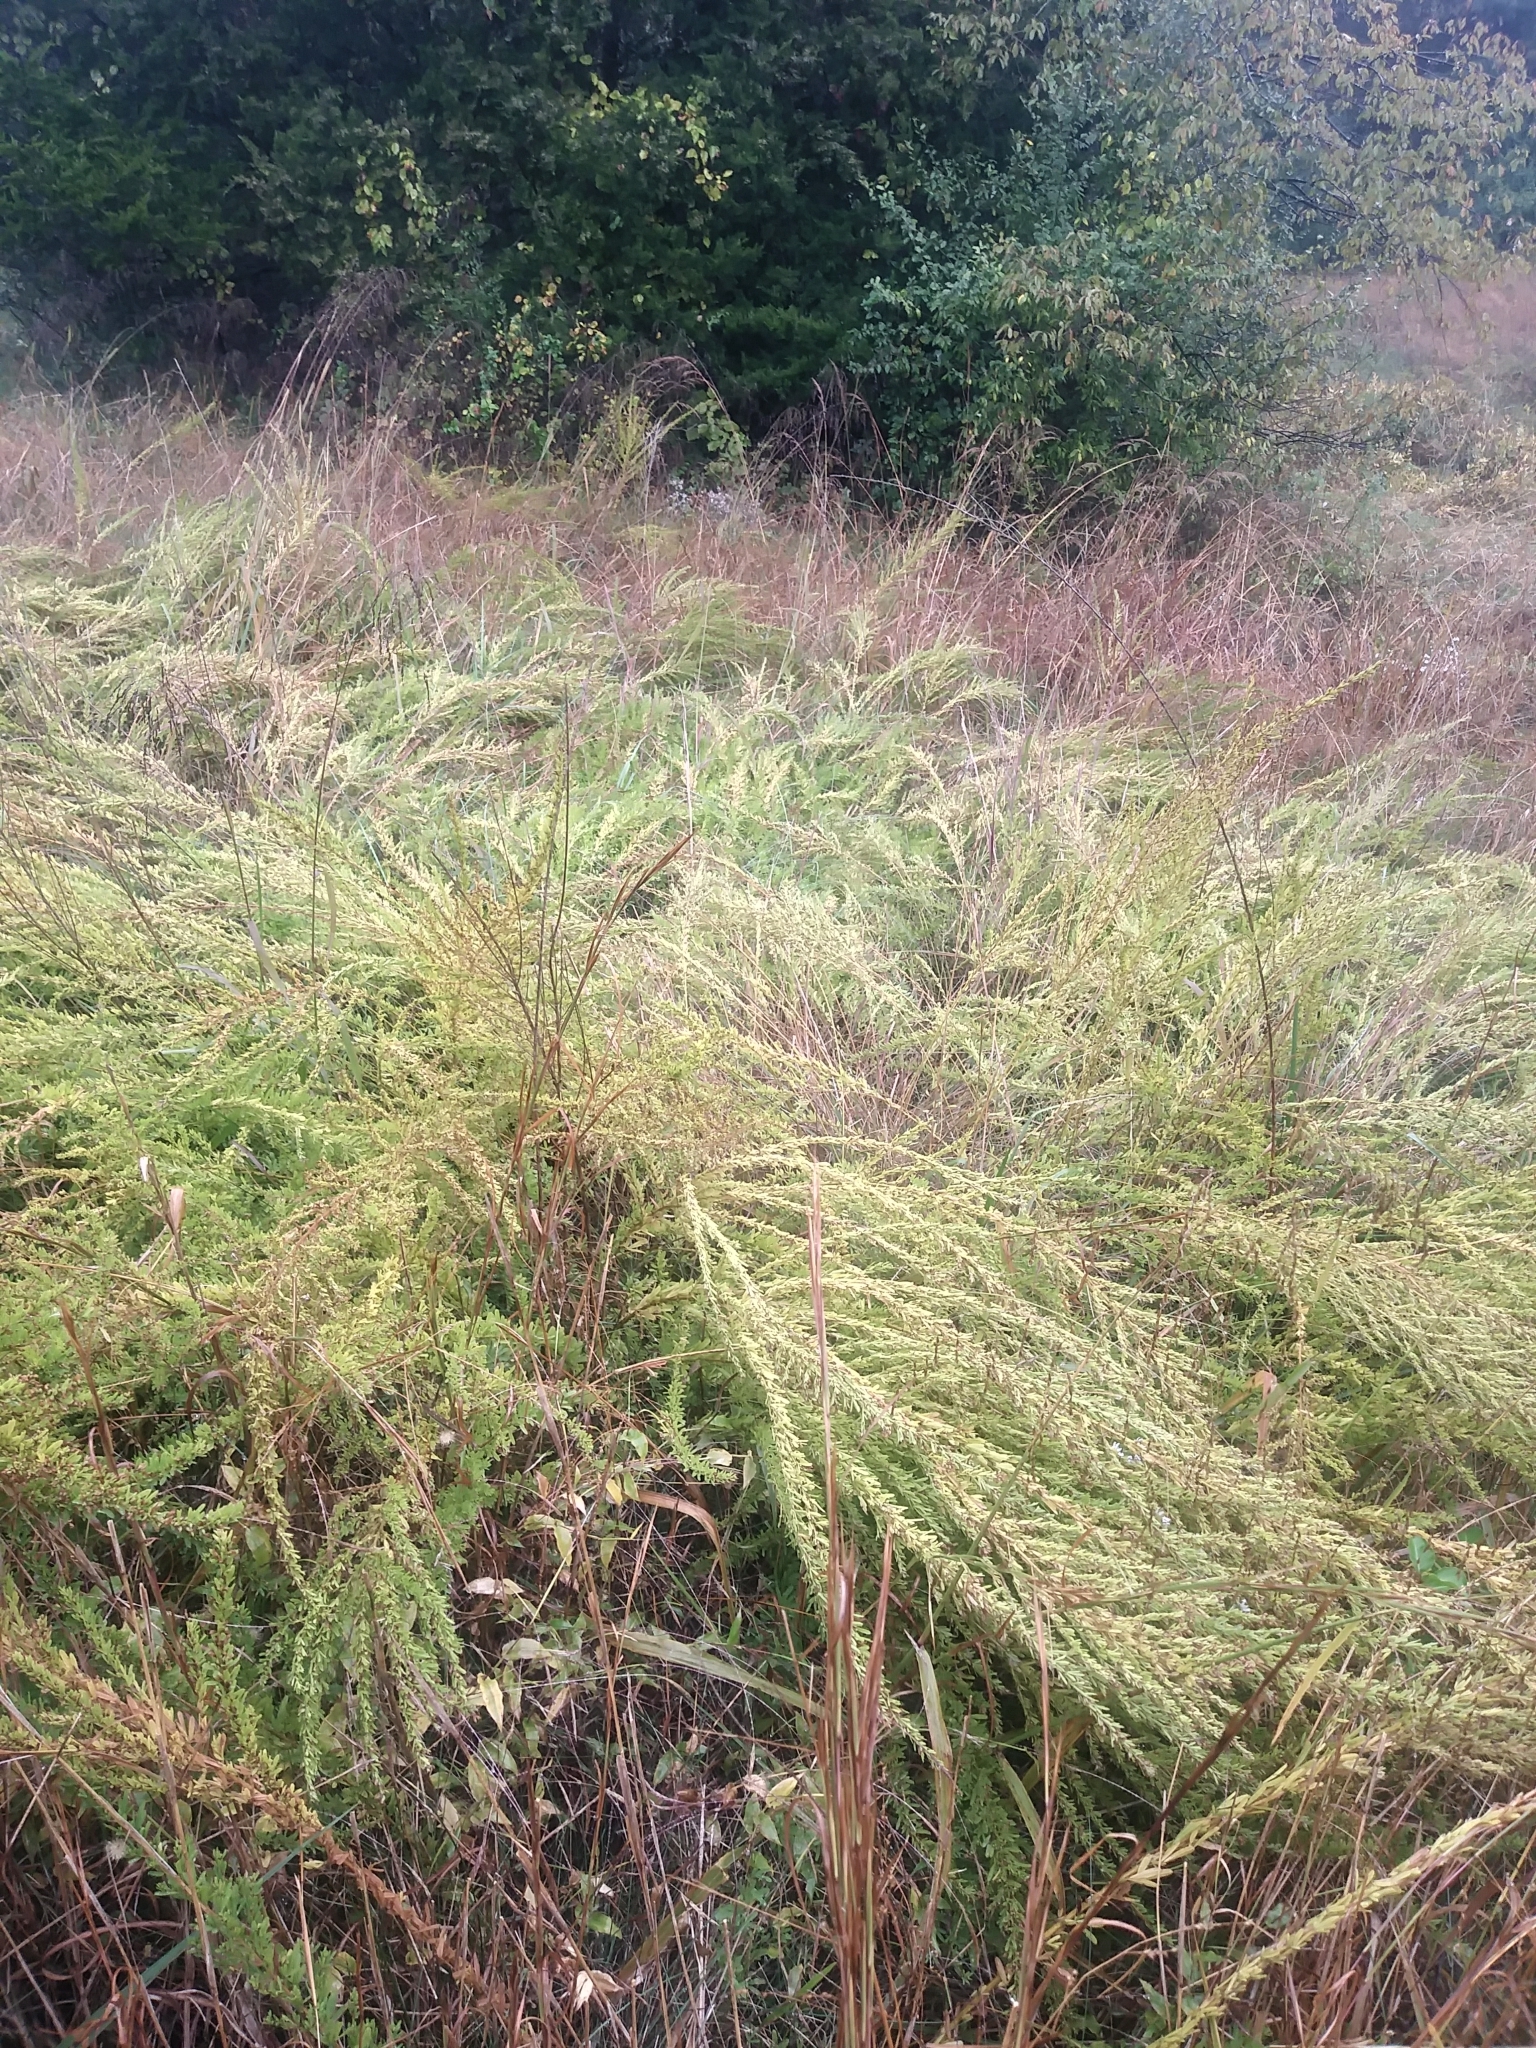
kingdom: Plantae
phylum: Tracheophyta
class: Magnoliopsida
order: Fabales
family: Fabaceae
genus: Lespedeza
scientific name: Lespedeza cuneata
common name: Chinese bush-clover
